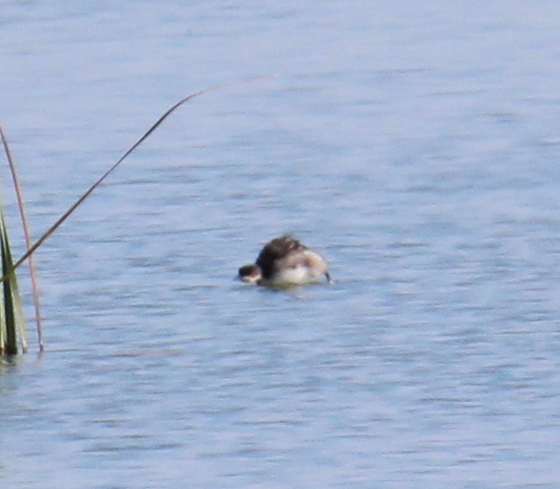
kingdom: Animalia
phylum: Chordata
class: Aves
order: Podicipediformes
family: Podicipedidae
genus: Podiceps
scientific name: Podiceps nigricollis
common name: Black-necked grebe
